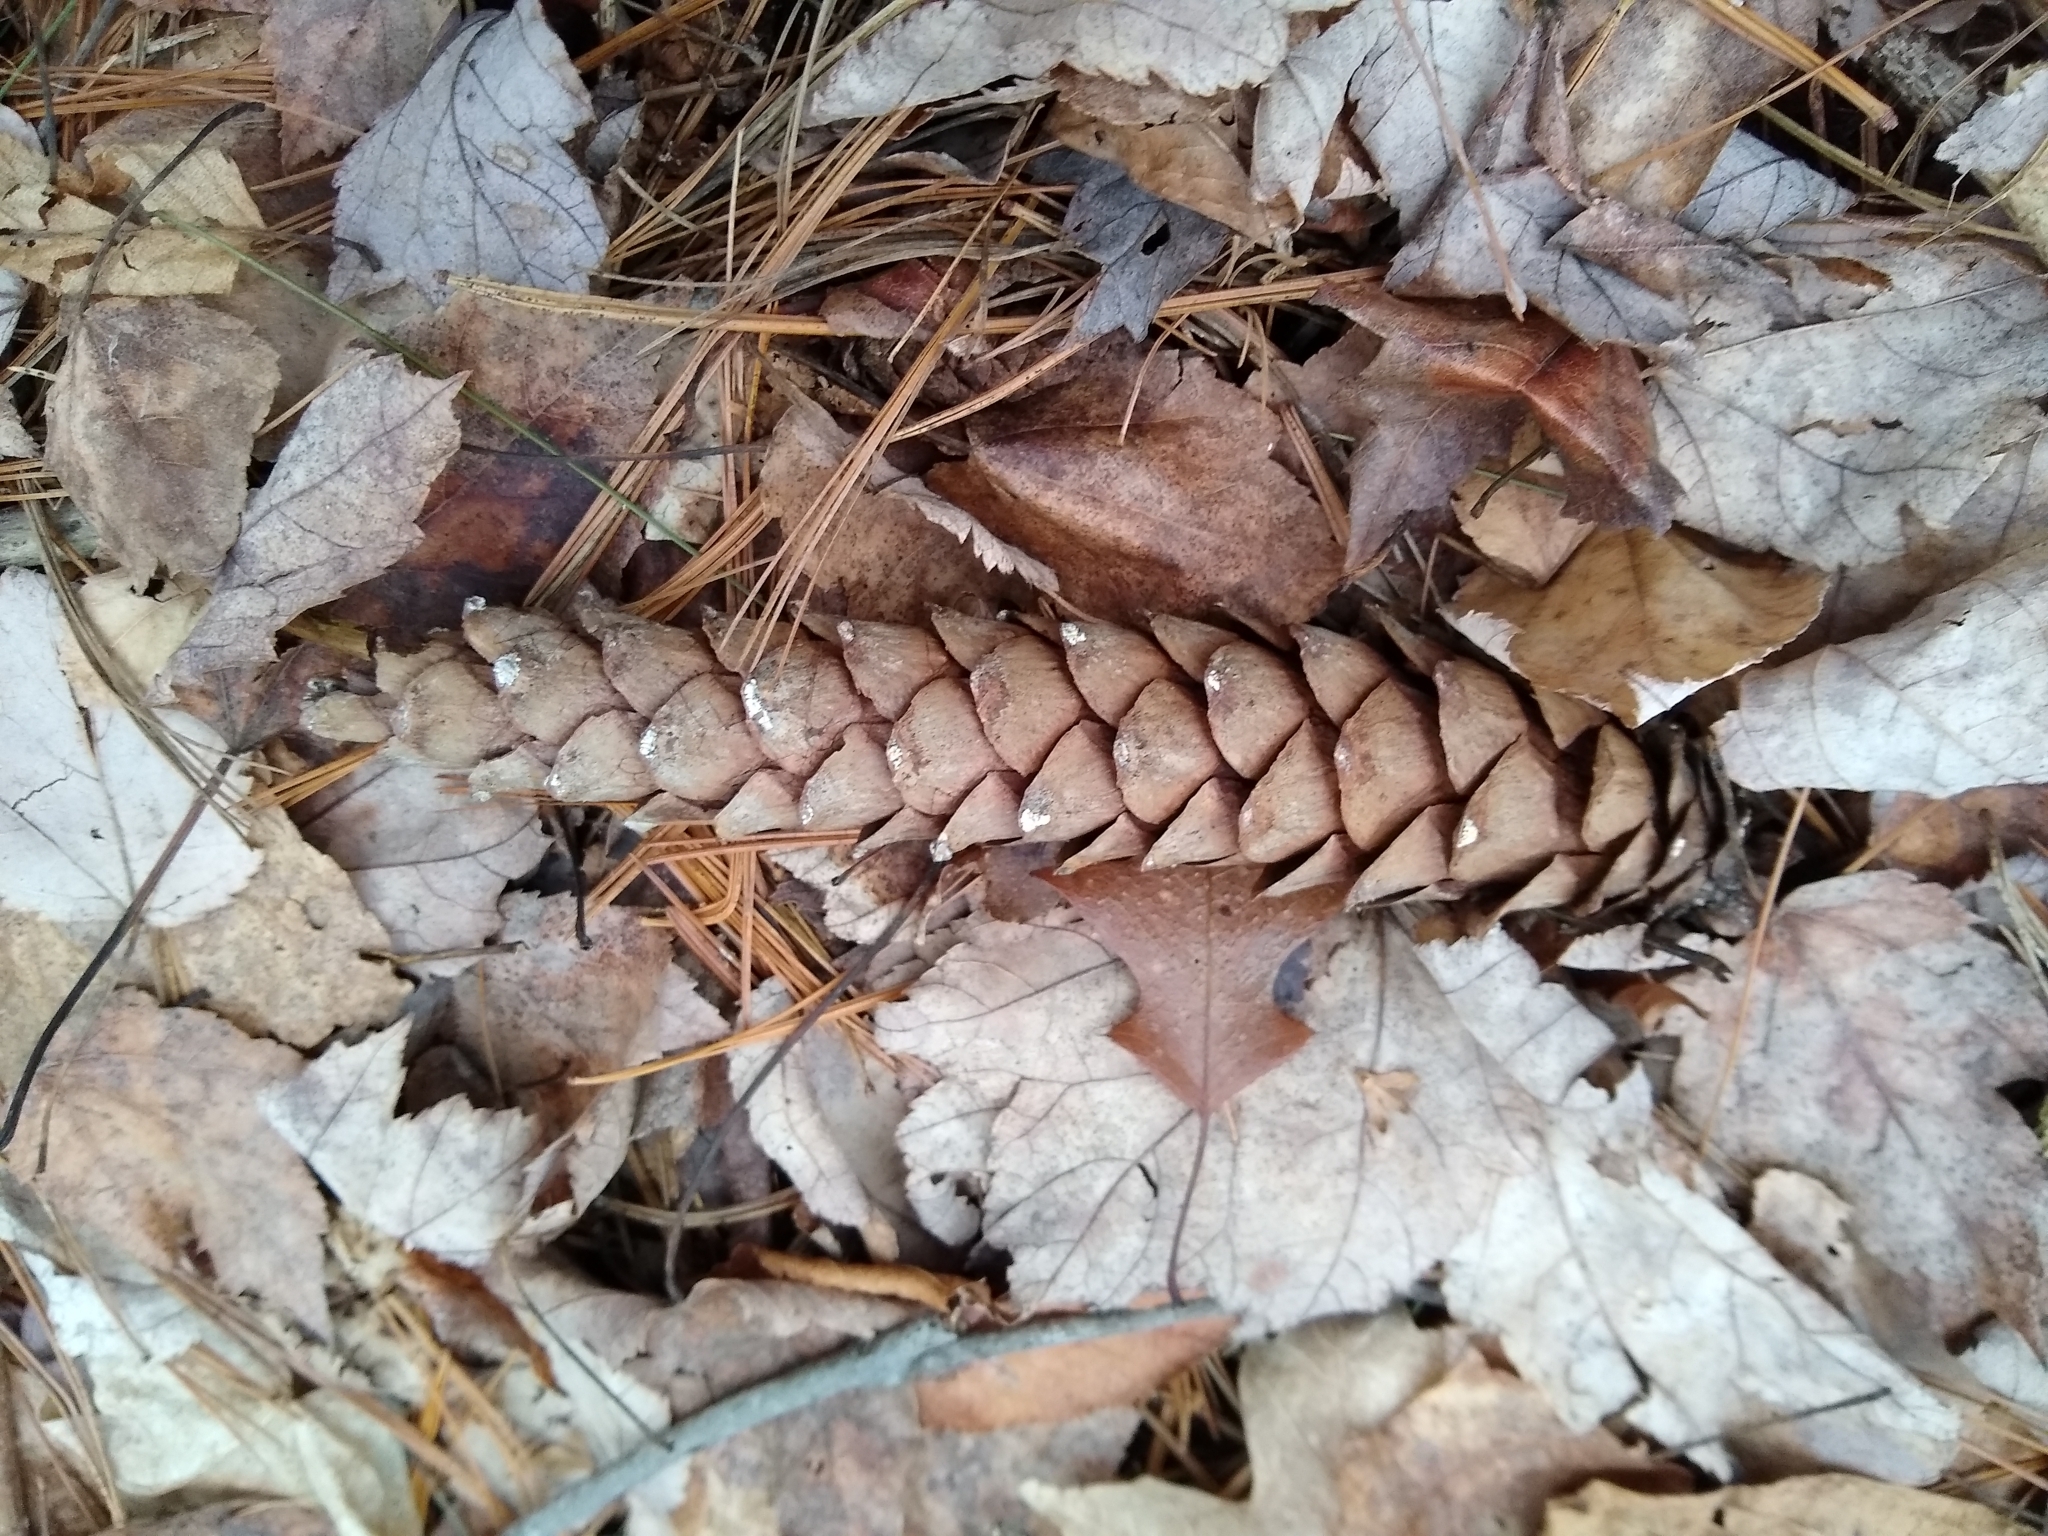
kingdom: Plantae
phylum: Tracheophyta
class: Pinopsida
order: Pinales
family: Pinaceae
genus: Pinus
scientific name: Pinus strobus
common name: Weymouth pine
